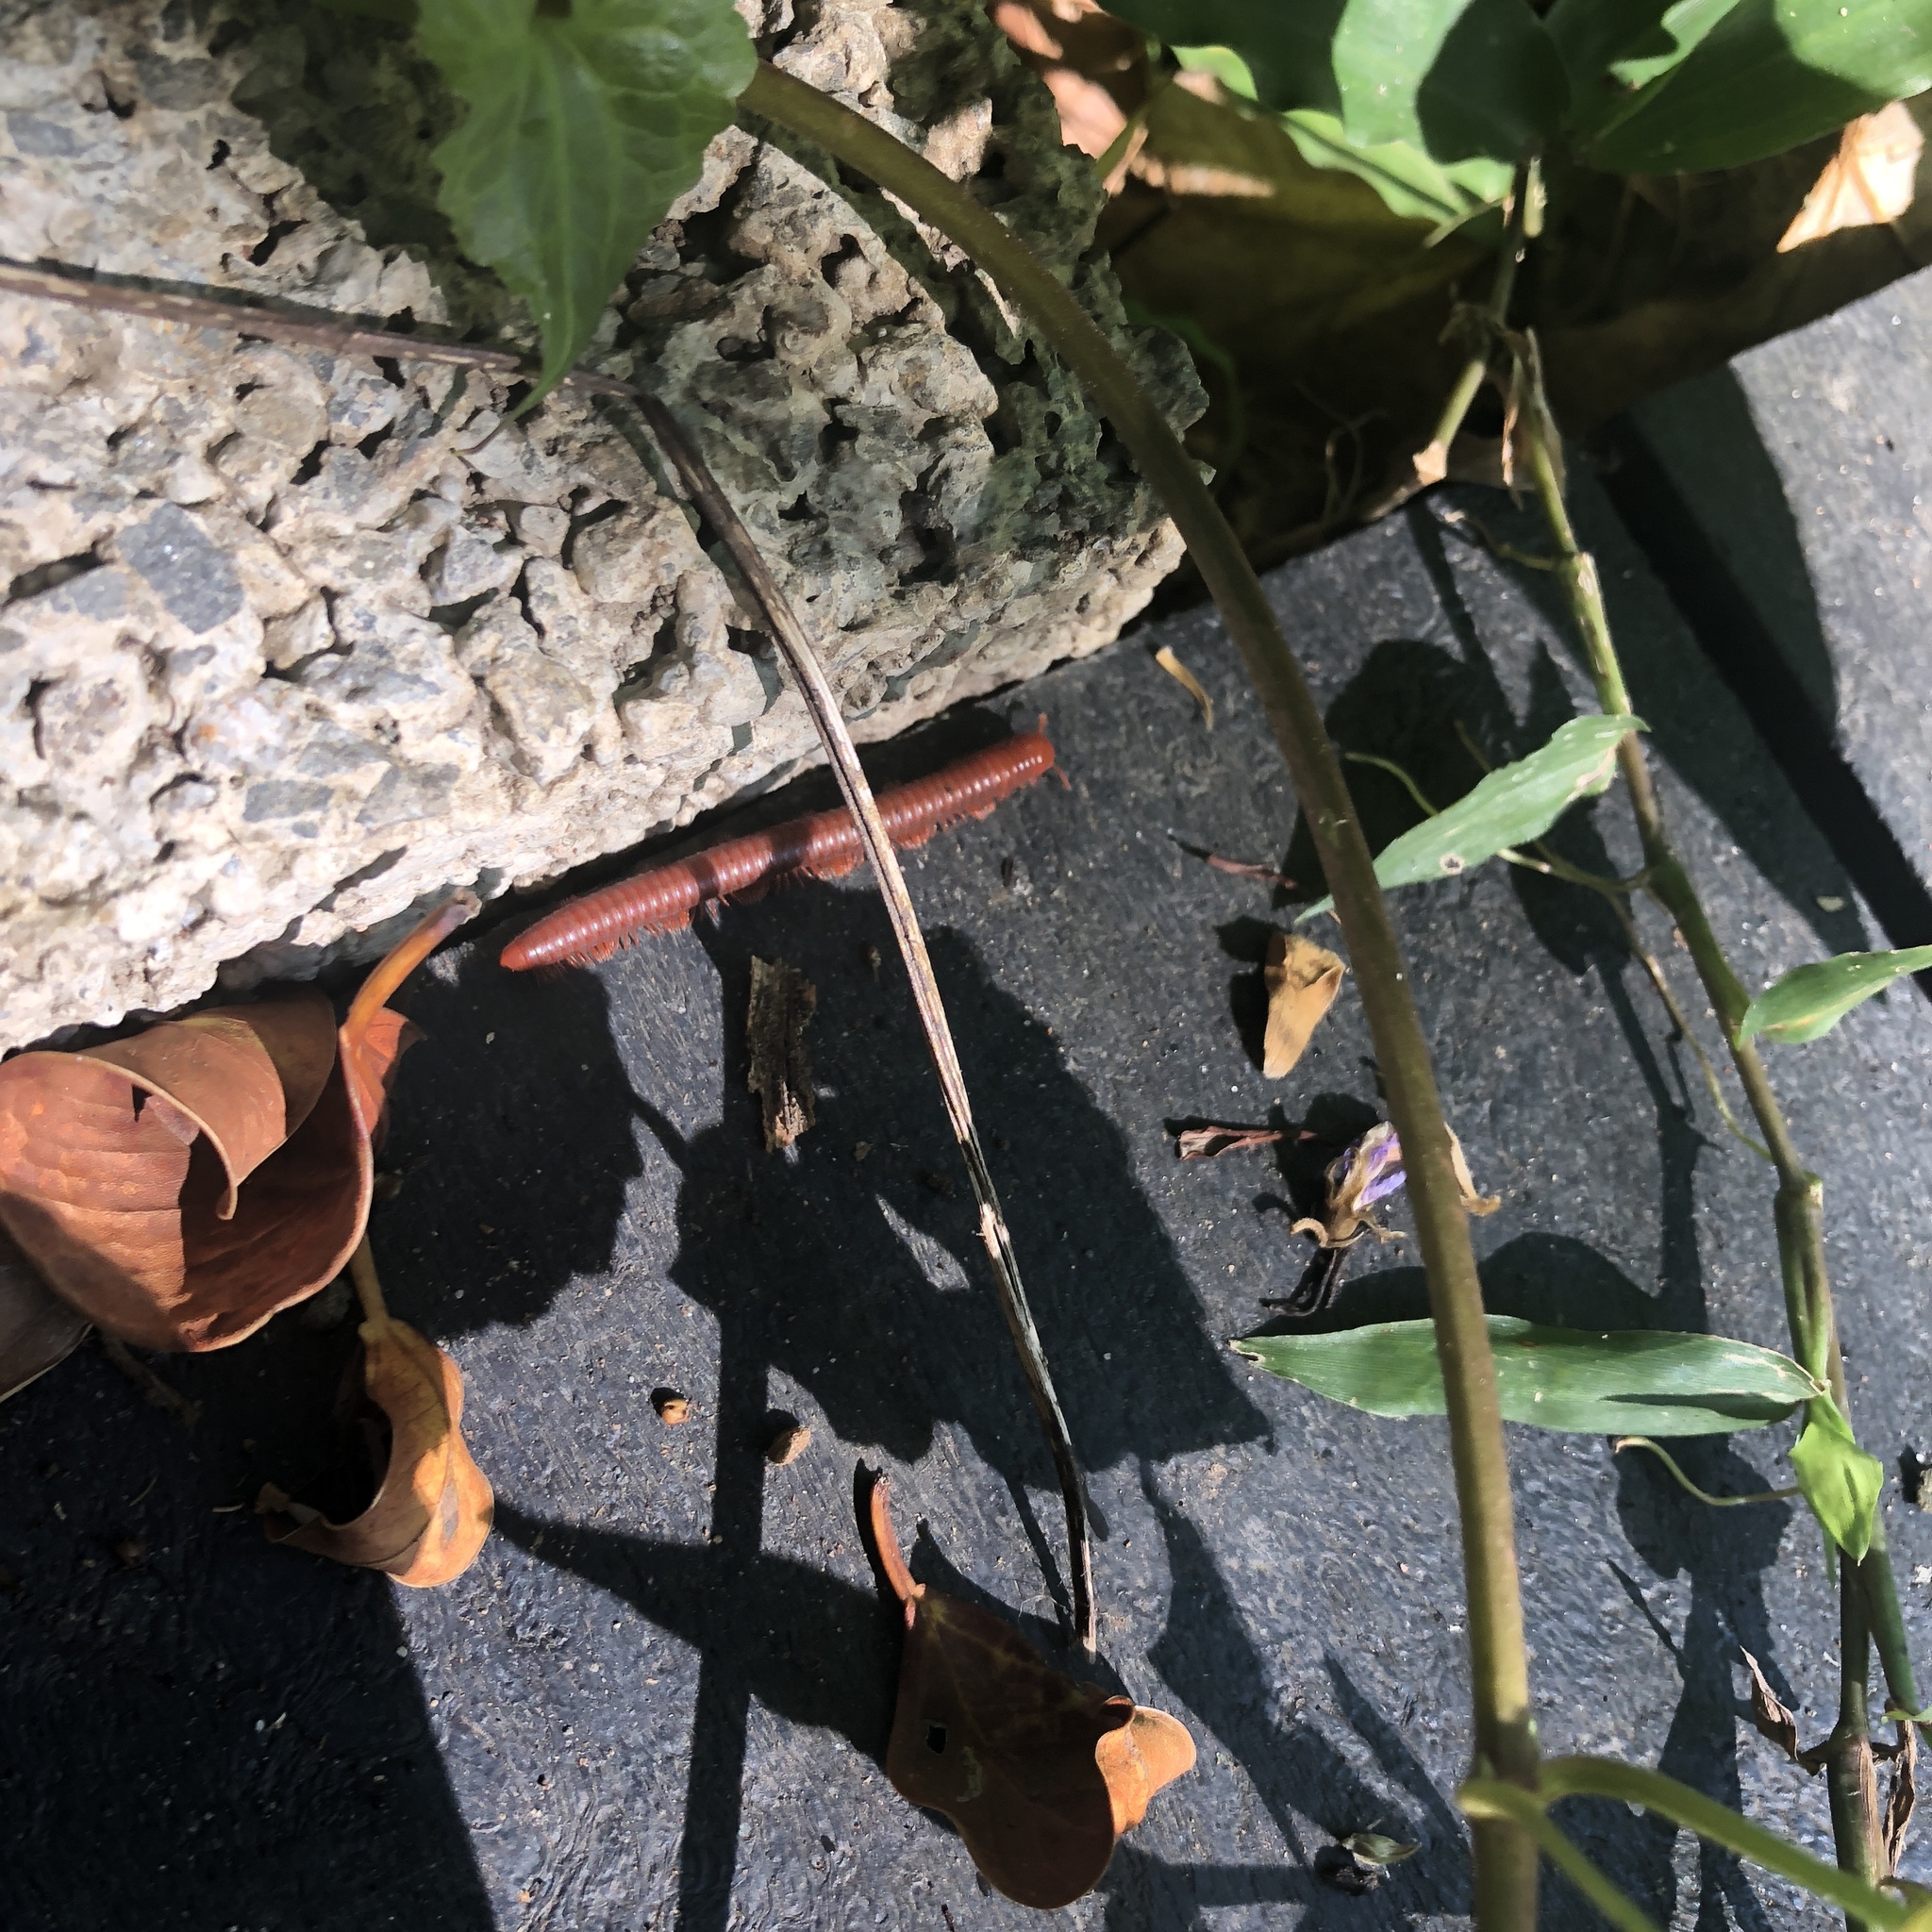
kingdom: Animalia
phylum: Arthropoda
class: Diplopoda
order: Spirobolida
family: Pachybolidae
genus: Trigoniulus
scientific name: Trigoniulus corallinus
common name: Millipede
